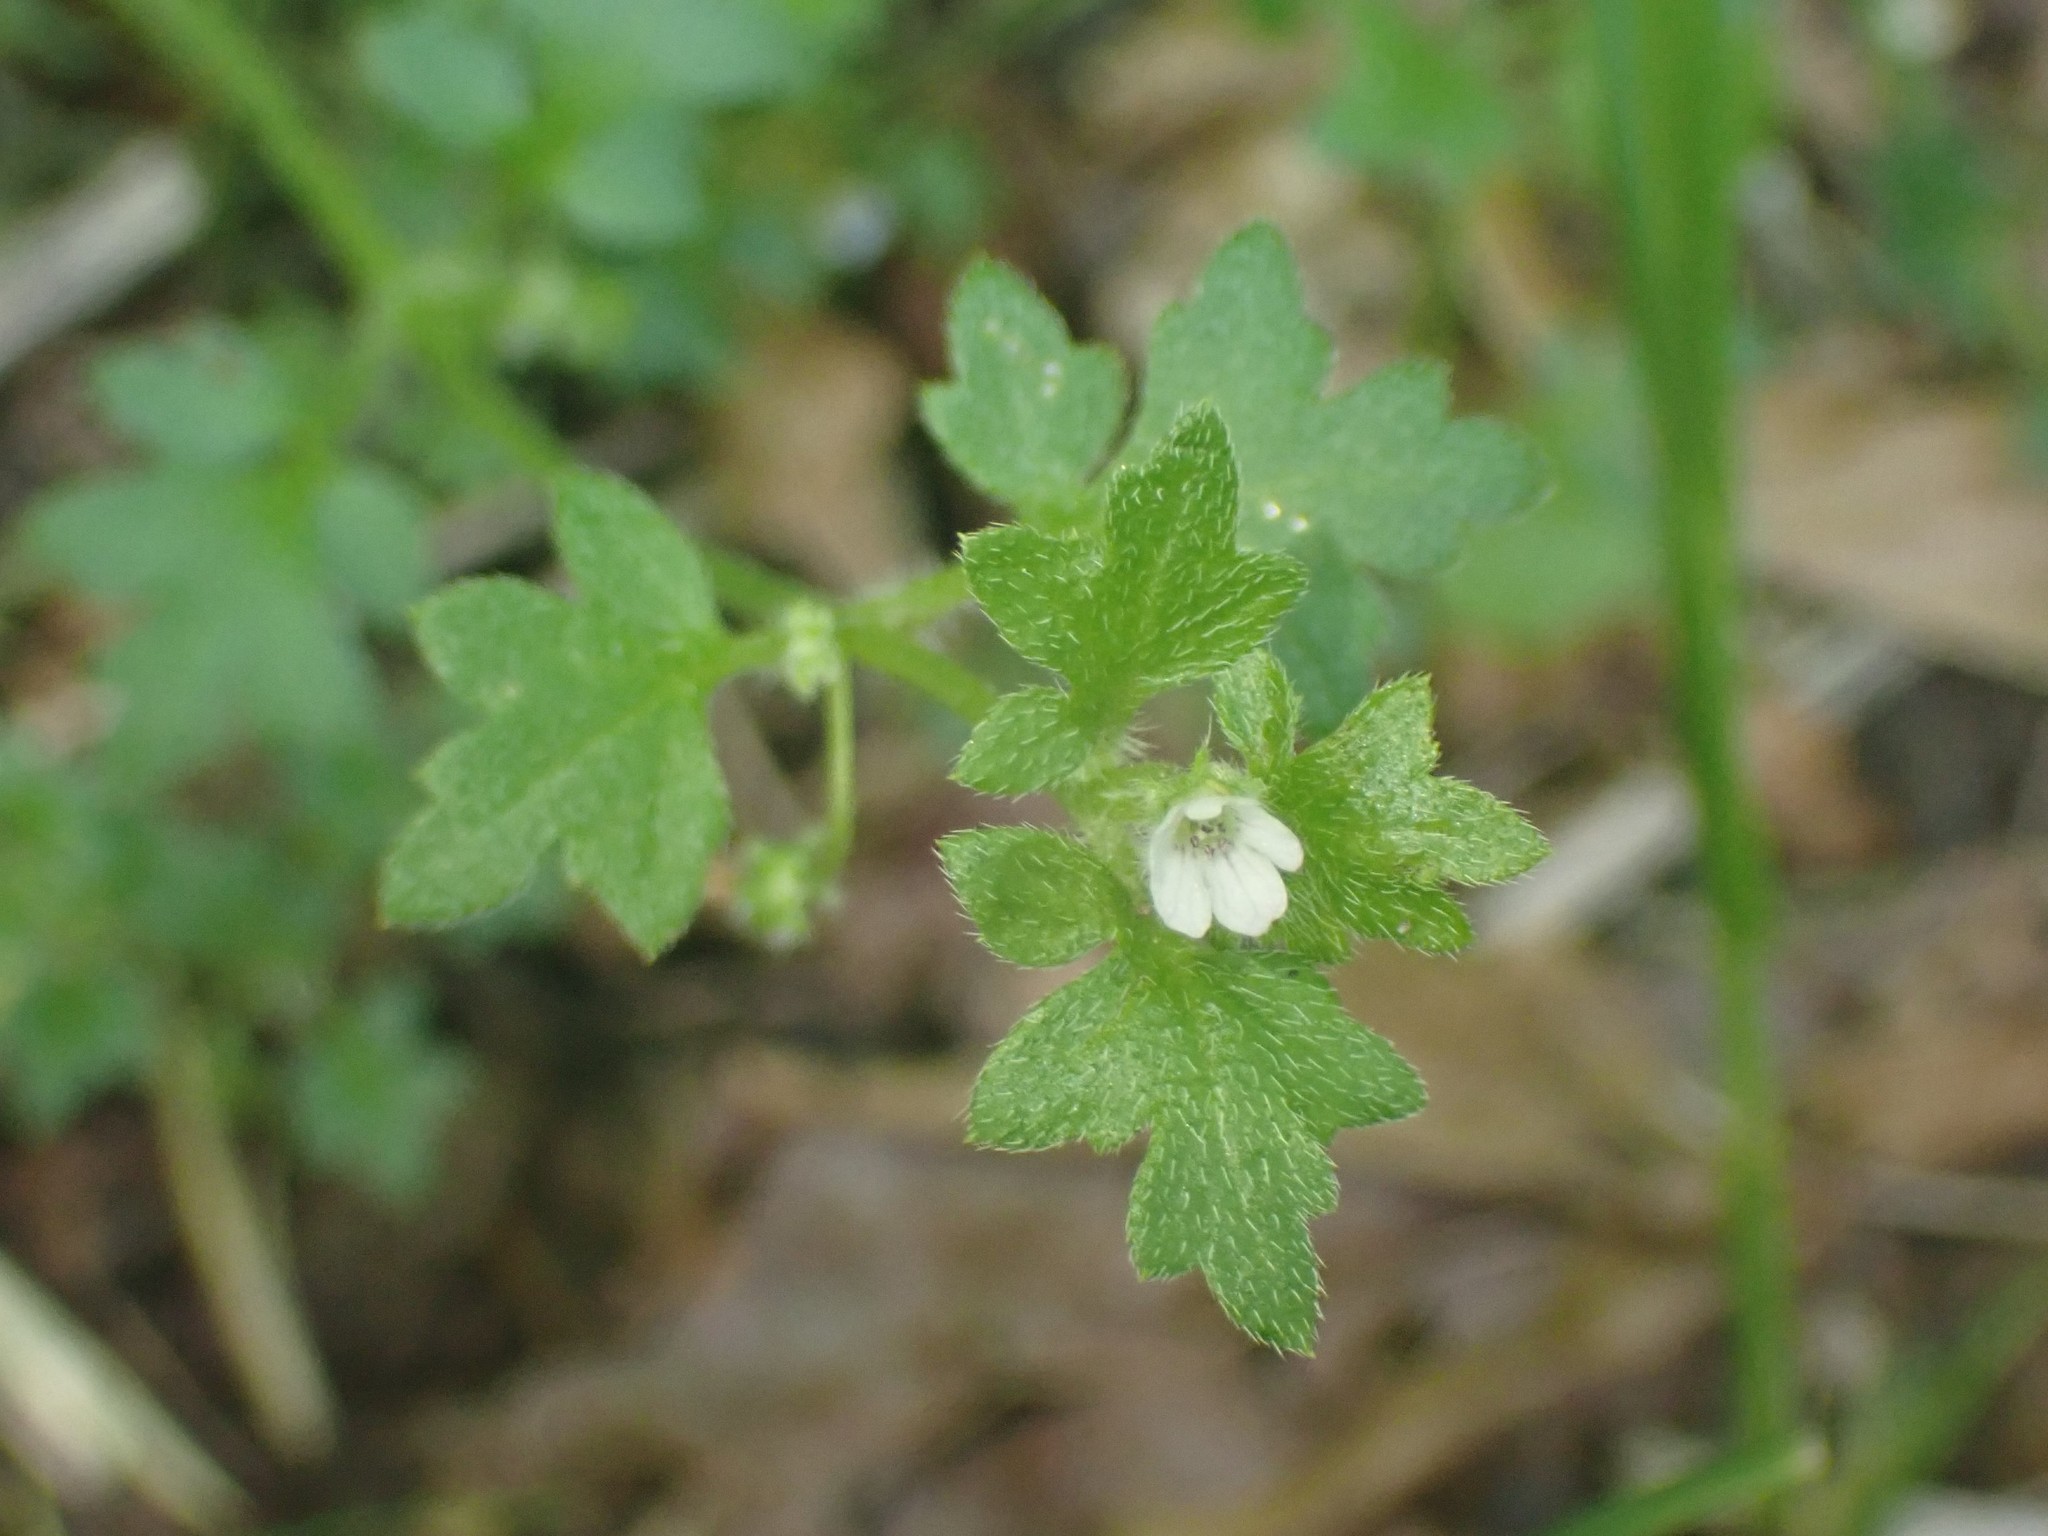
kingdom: Plantae
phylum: Tracheophyta
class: Magnoliopsida
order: Boraginales
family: Hydrophyllaceae
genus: Nemophila
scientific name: Nemophila parviflora
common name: Small-flowered baby-blue-eyes
